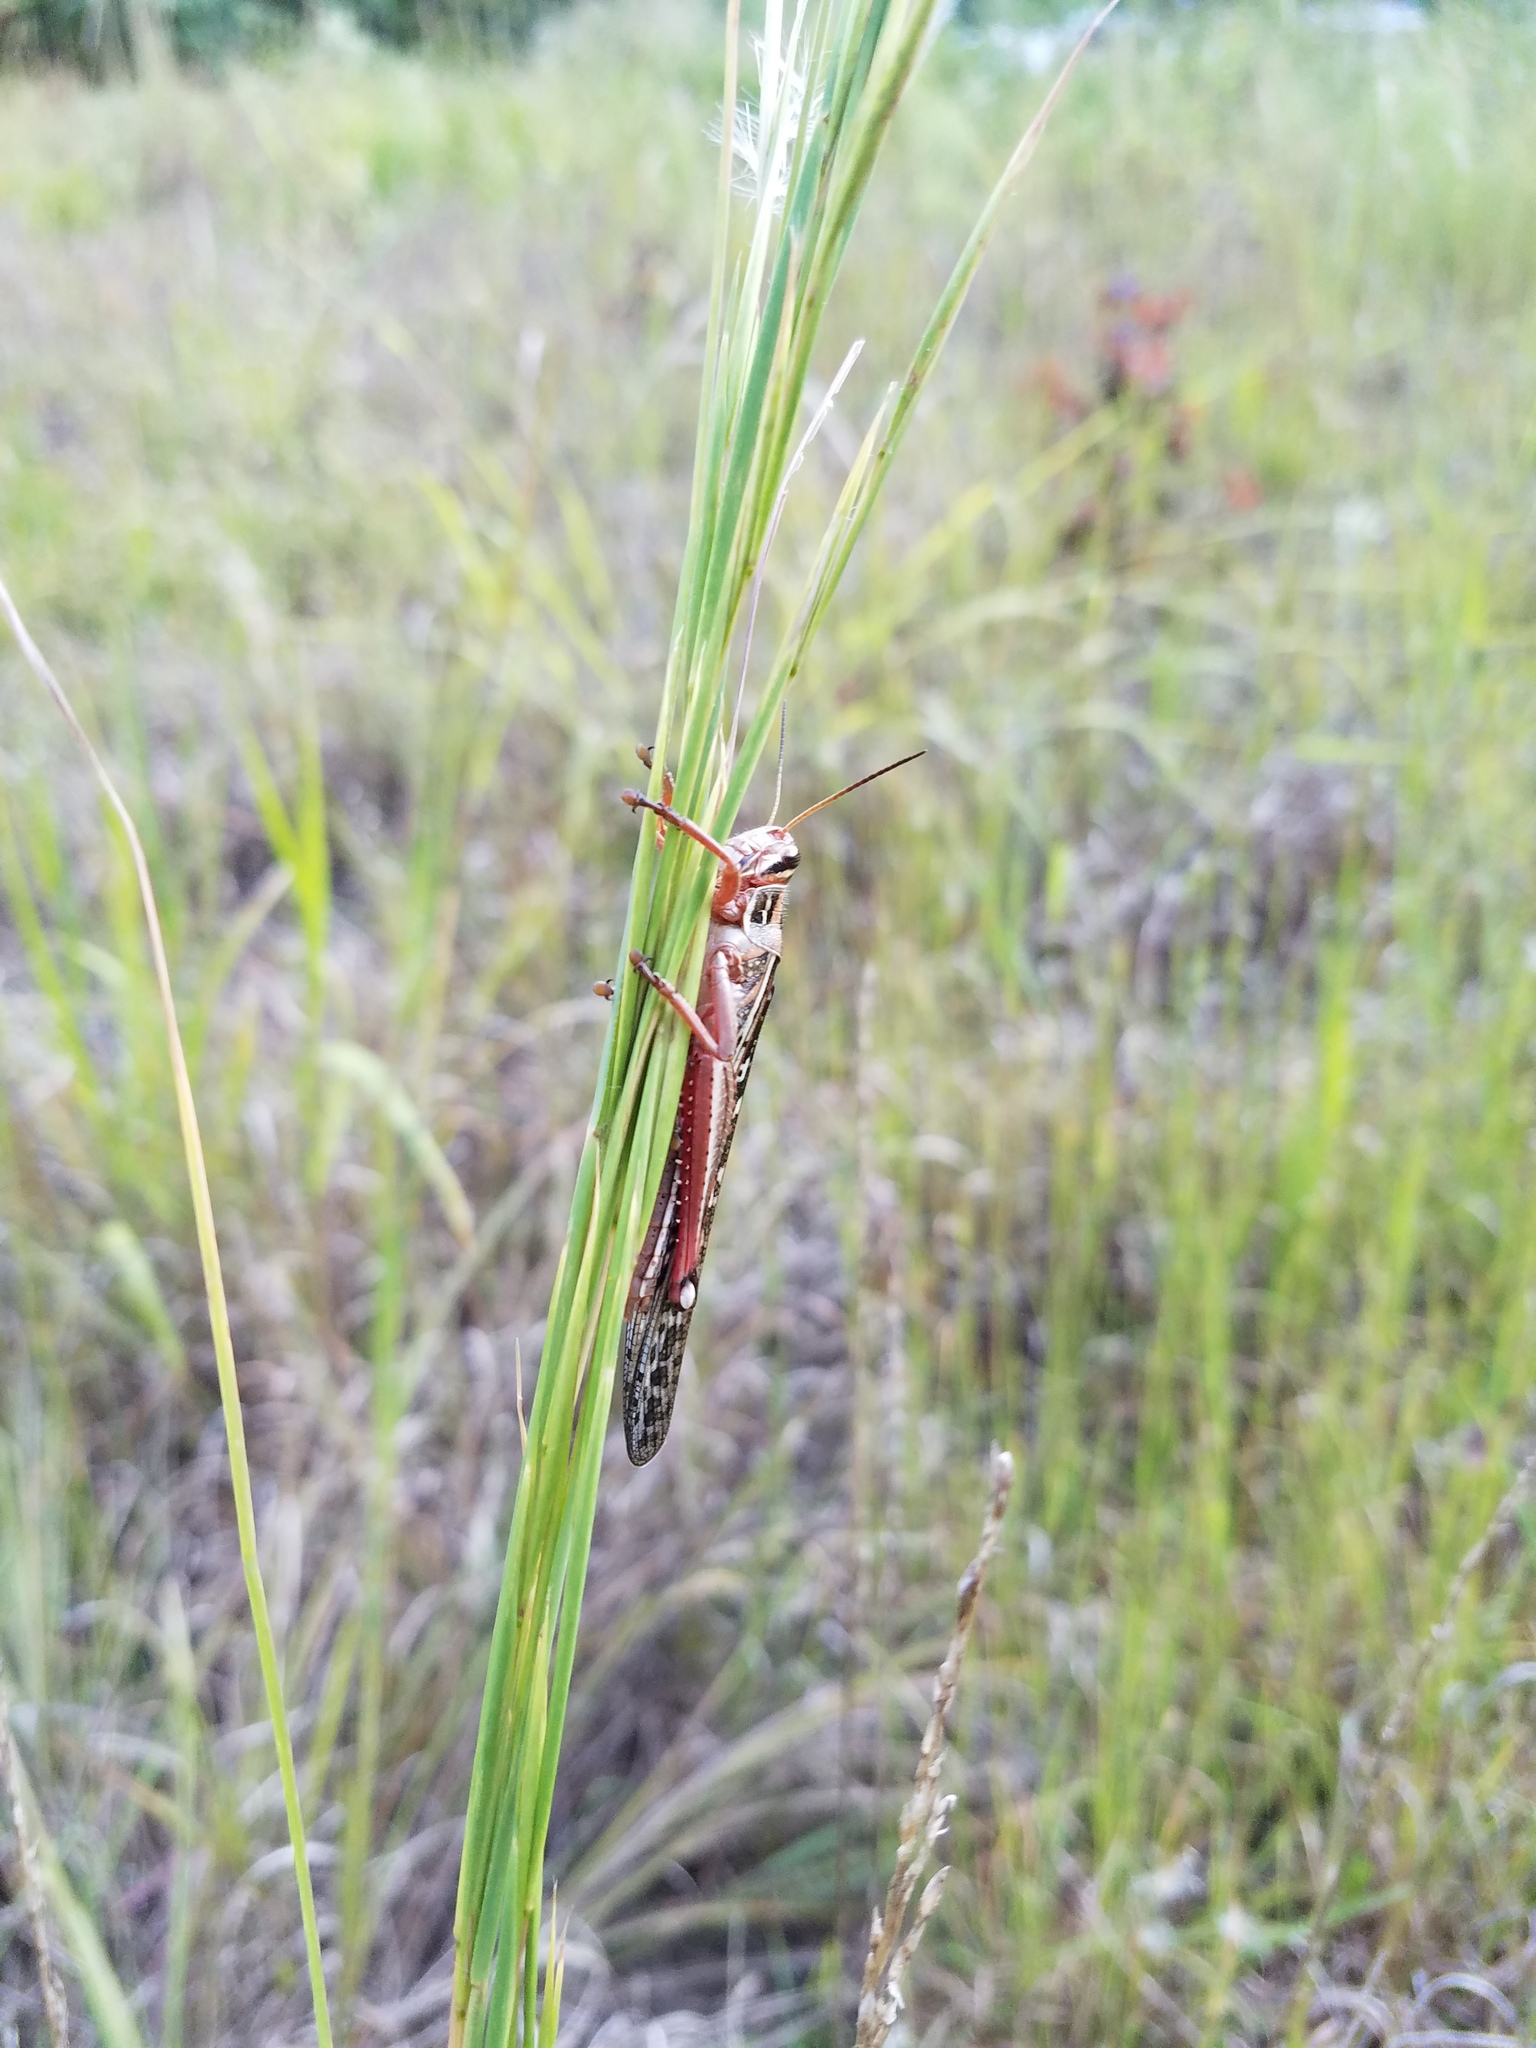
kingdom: Animalia
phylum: Arthropoda
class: Insecta
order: Orthoptera
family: Acrididae
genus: Schistocerca
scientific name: Schistocerca americana
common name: American bird locust
